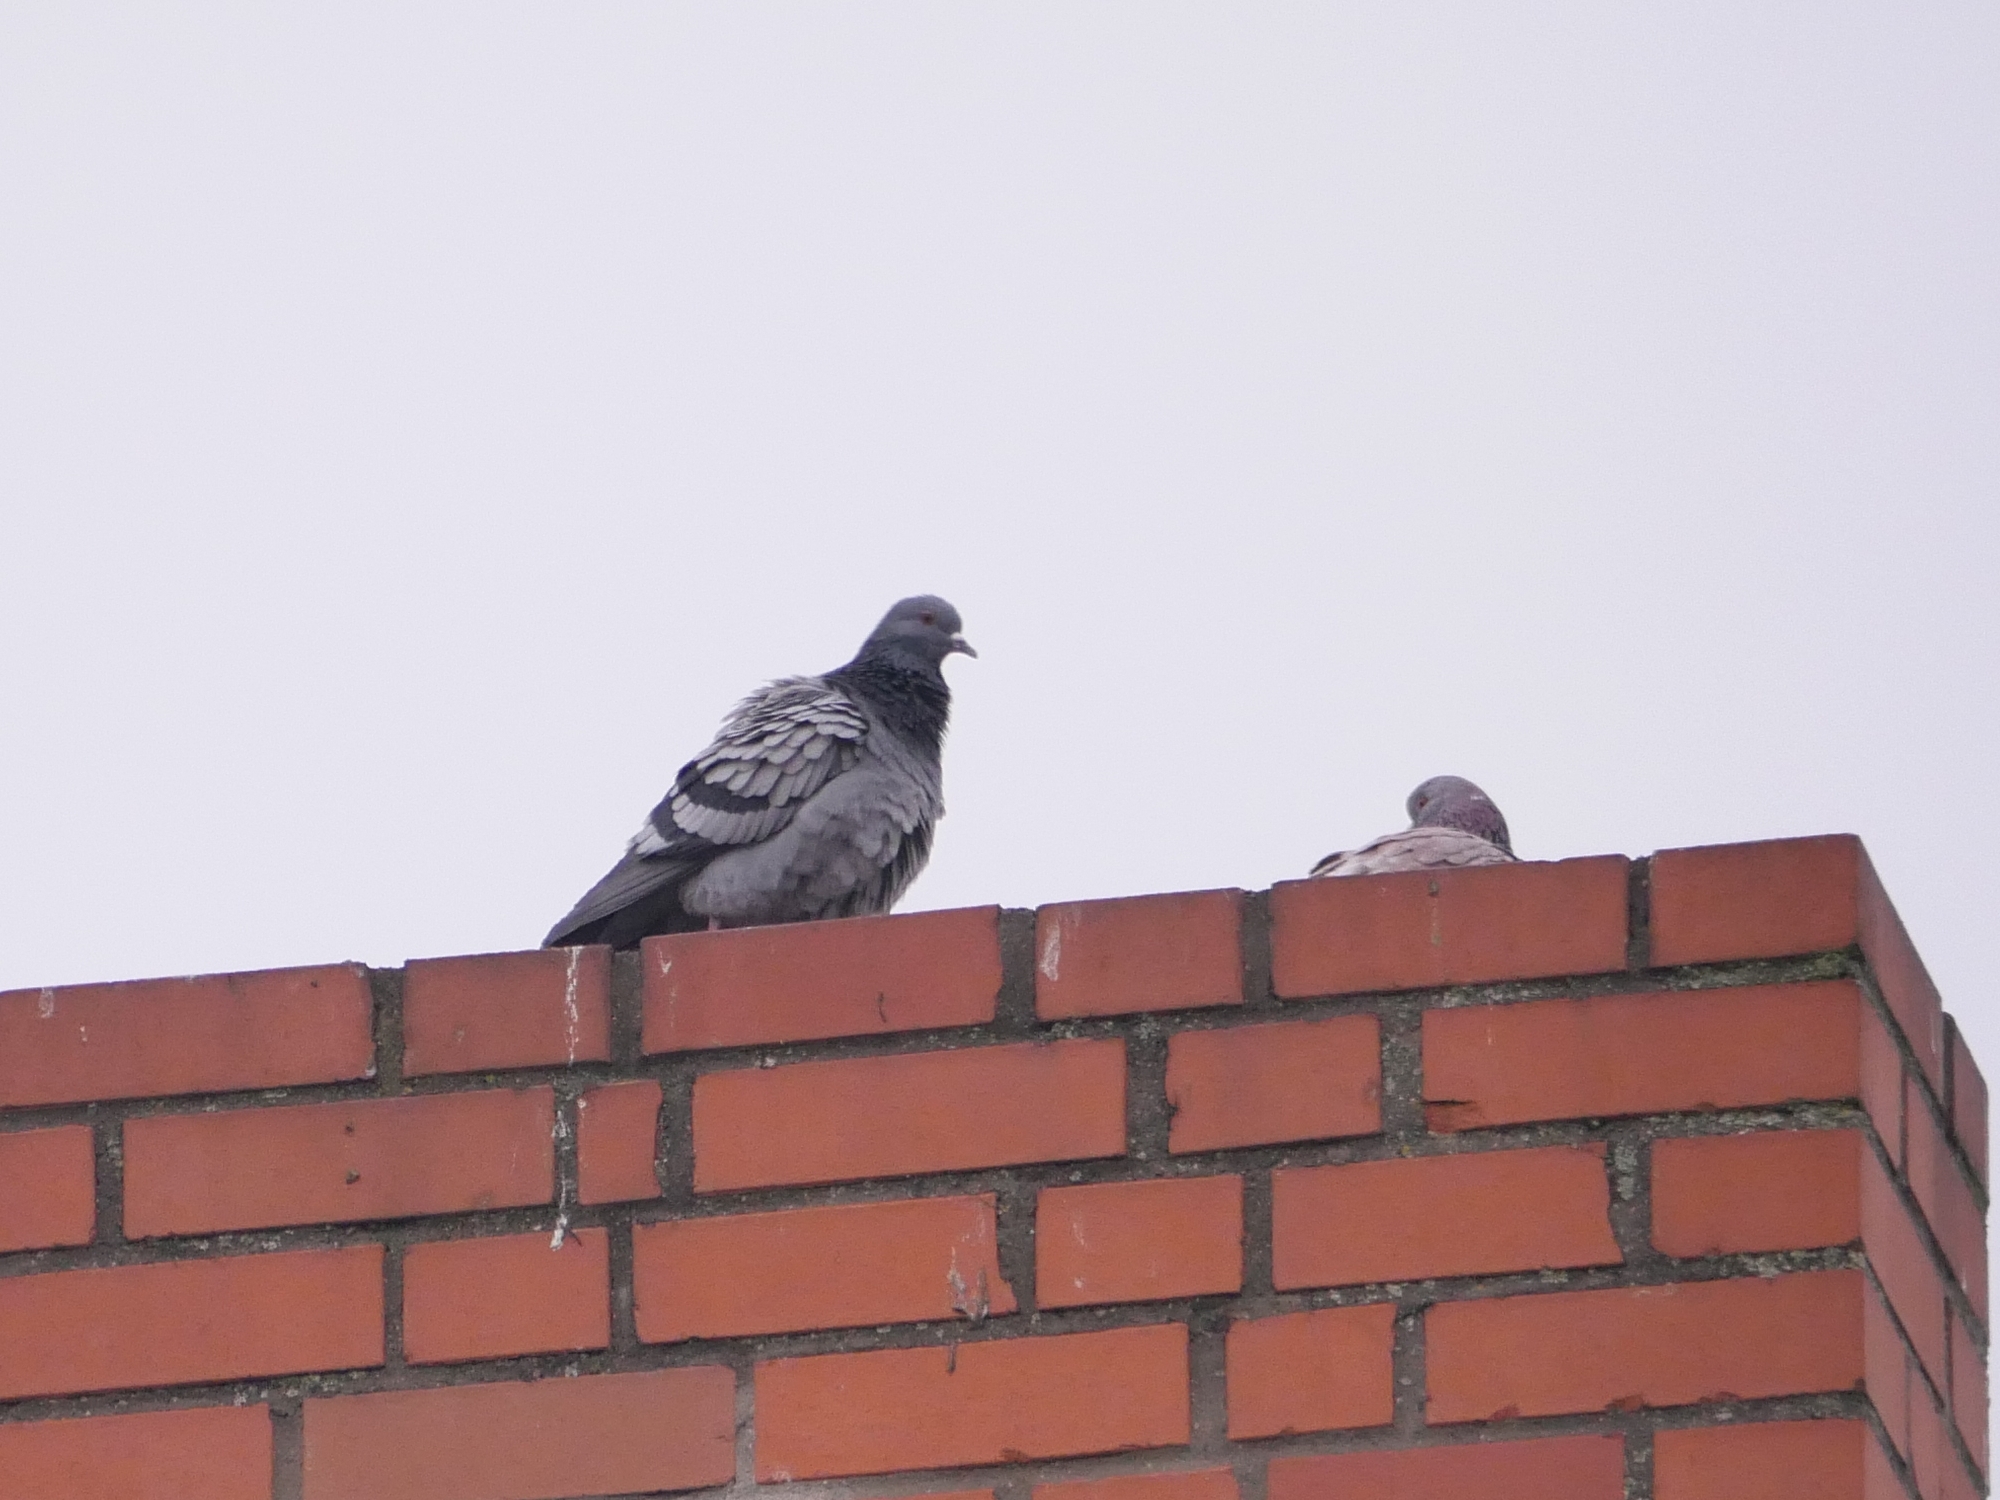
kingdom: Animalia
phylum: Chordata
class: Aves
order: Columbiformes
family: Columbidae
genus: Columba
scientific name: Columba livia
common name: Rock pigeon
